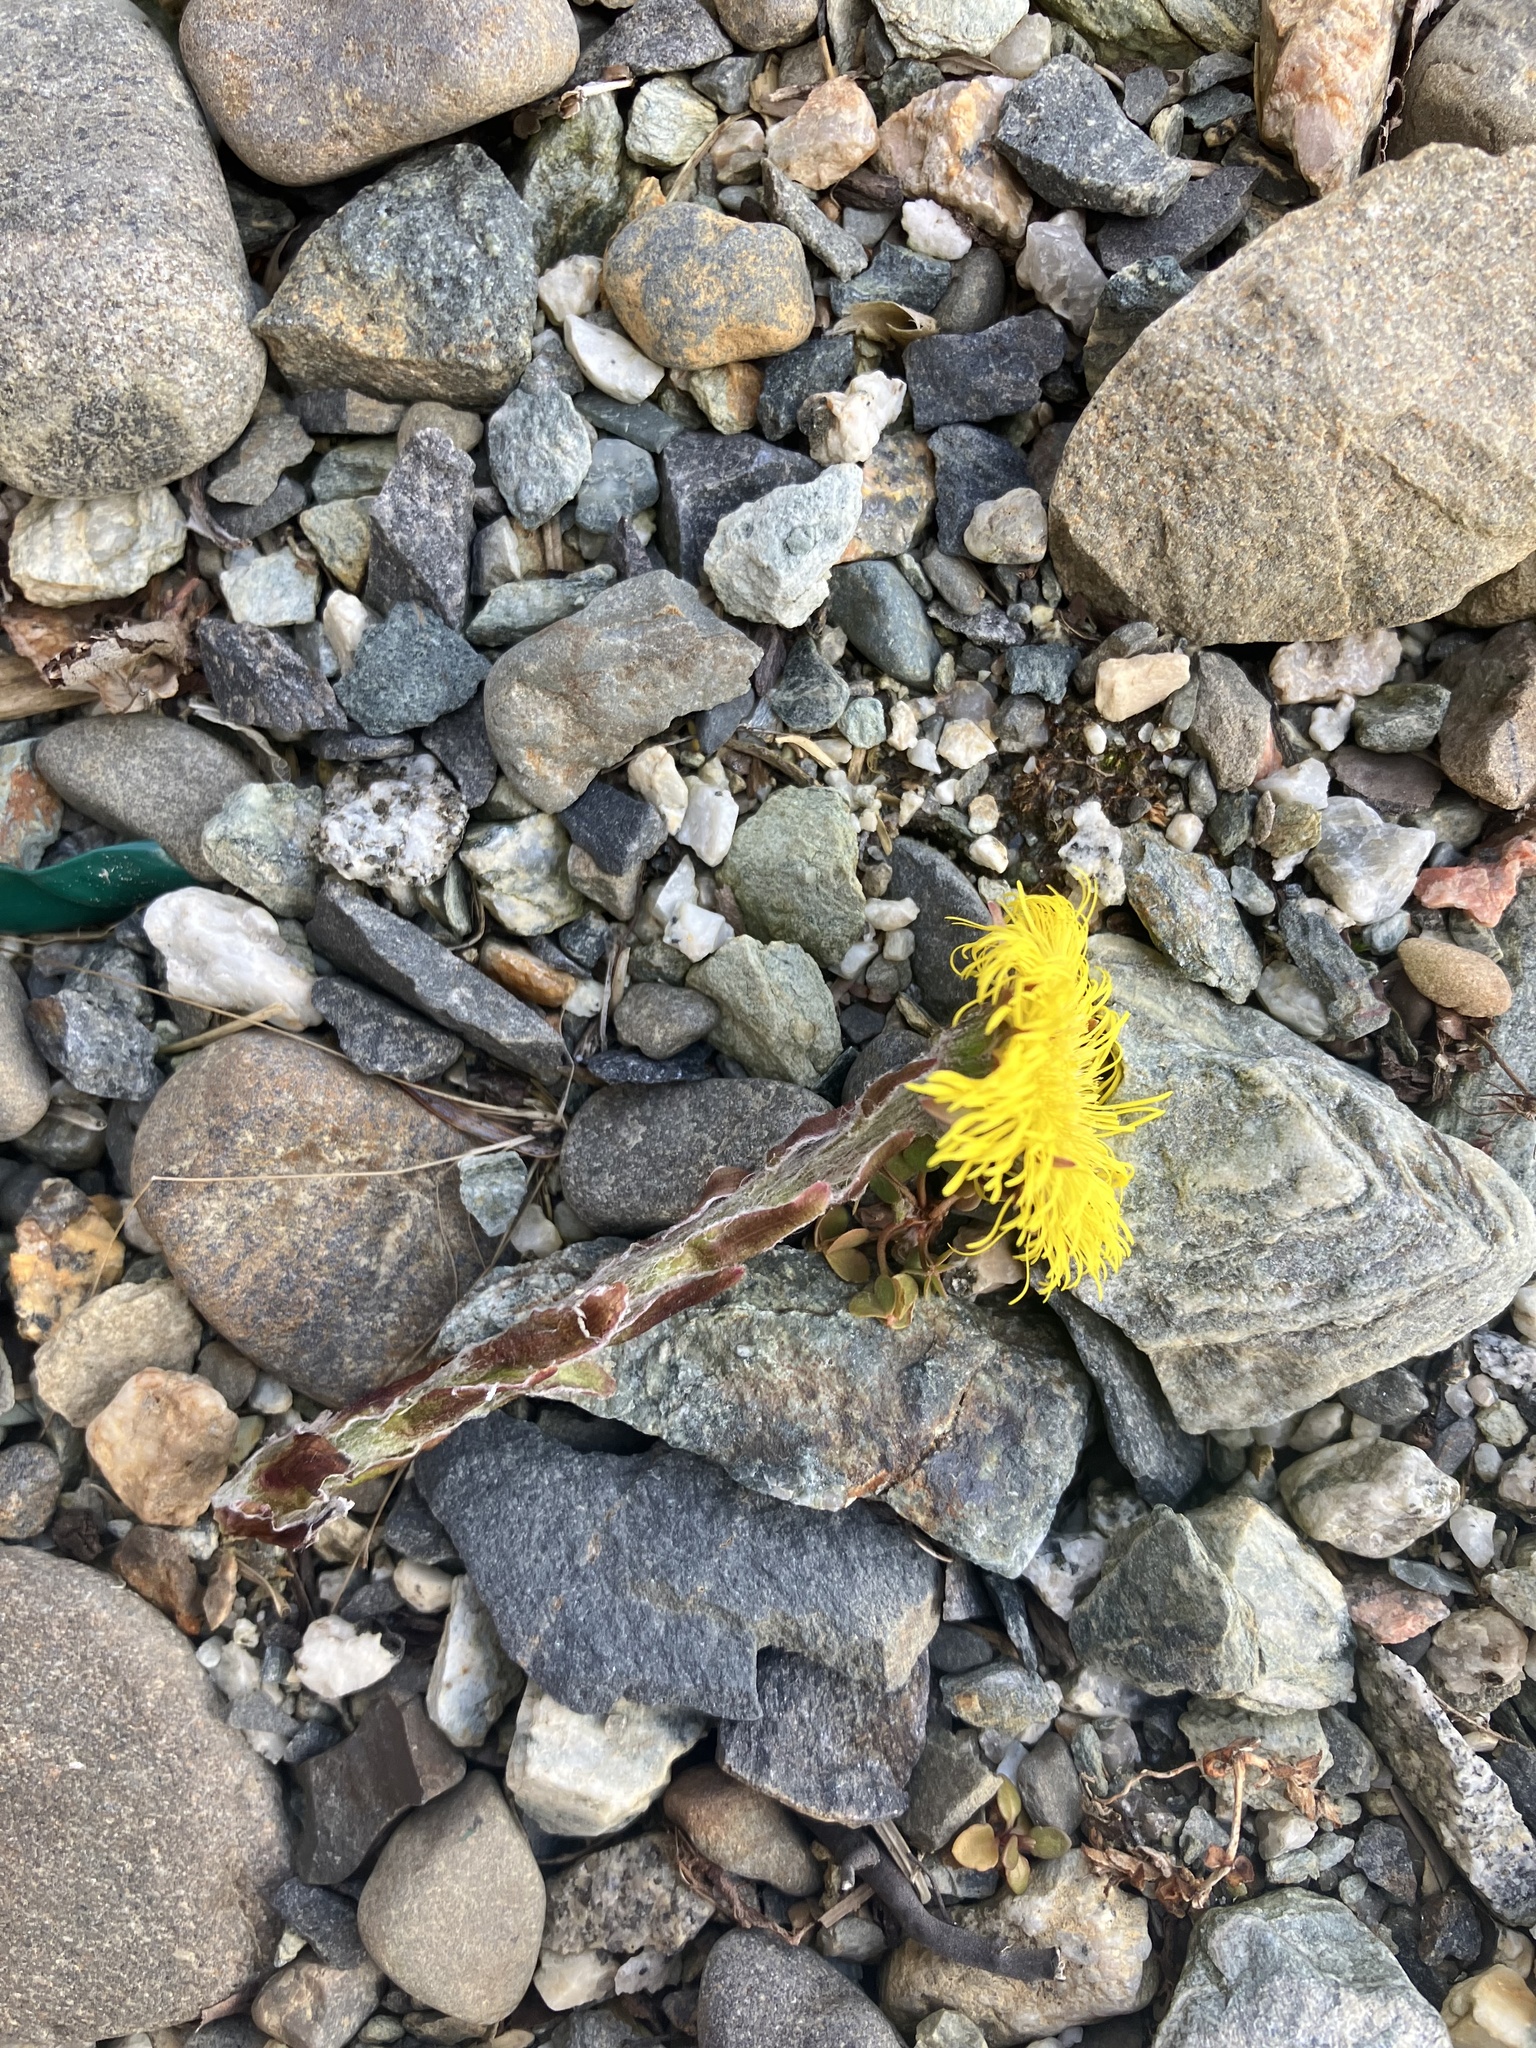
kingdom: Plantae
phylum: Tracheophyta
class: Magnoliopsida
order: Asterales
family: Asteraceae
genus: Tussilago
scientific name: Tussilago farfara
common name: Coltsfoot
